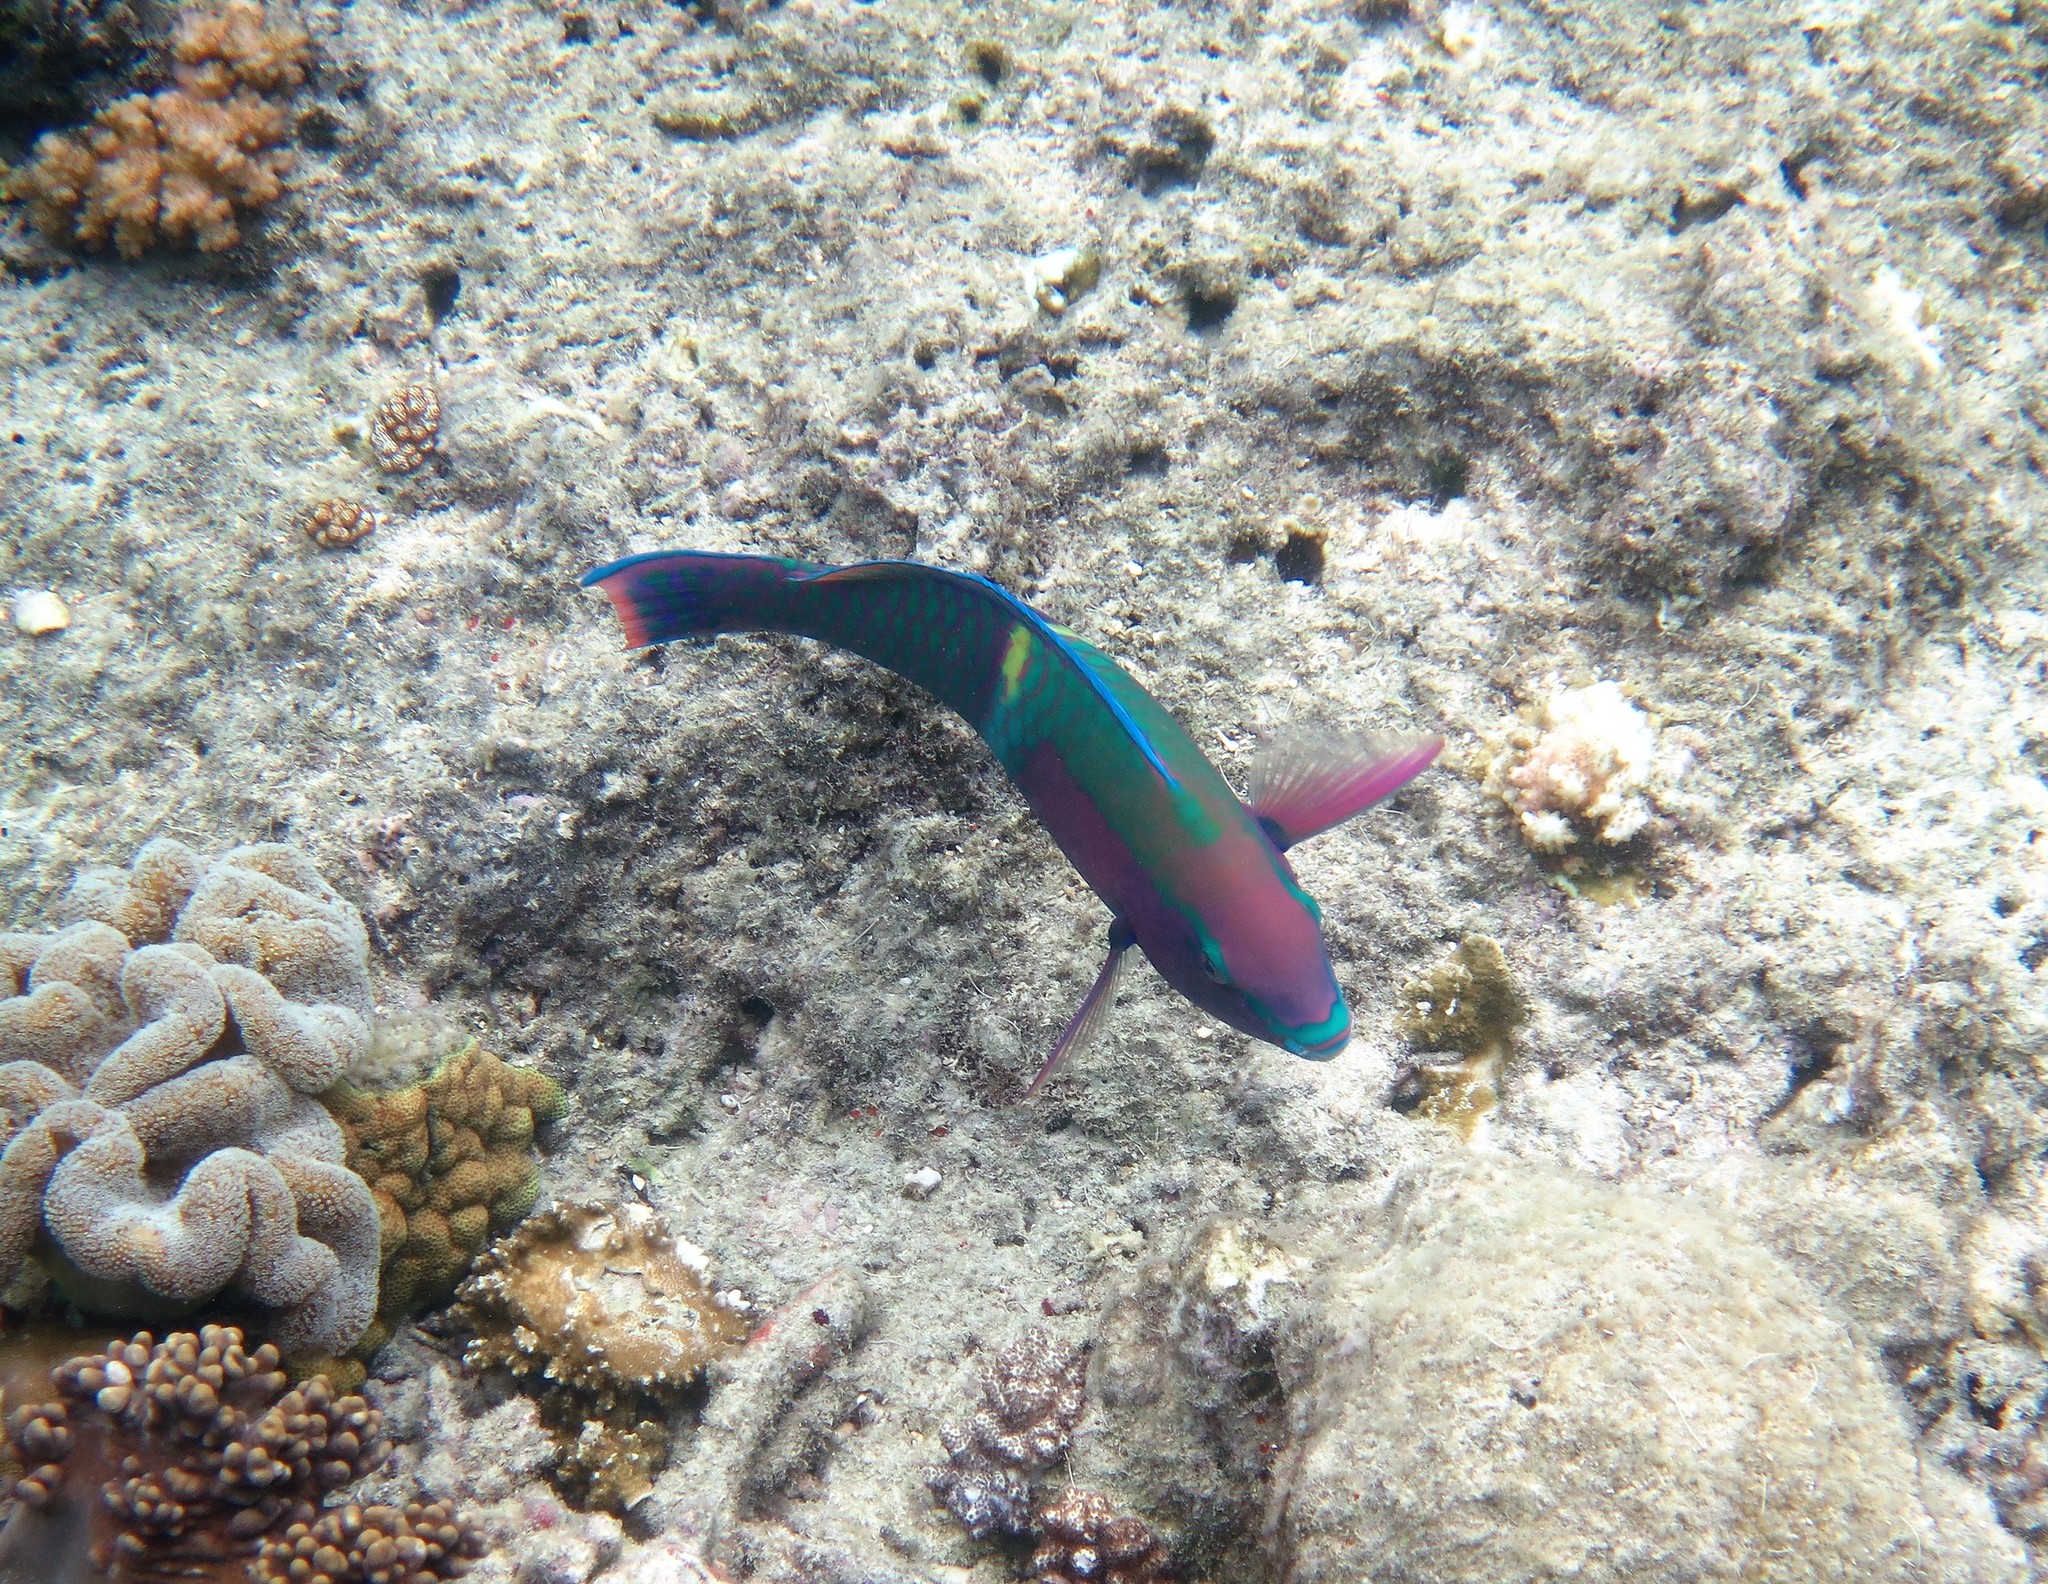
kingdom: Animalia
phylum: Chordata
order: Perciformes
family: Scaridae
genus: Scarus
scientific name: Scarus schlegeli
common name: Schlegel's parrotfish
